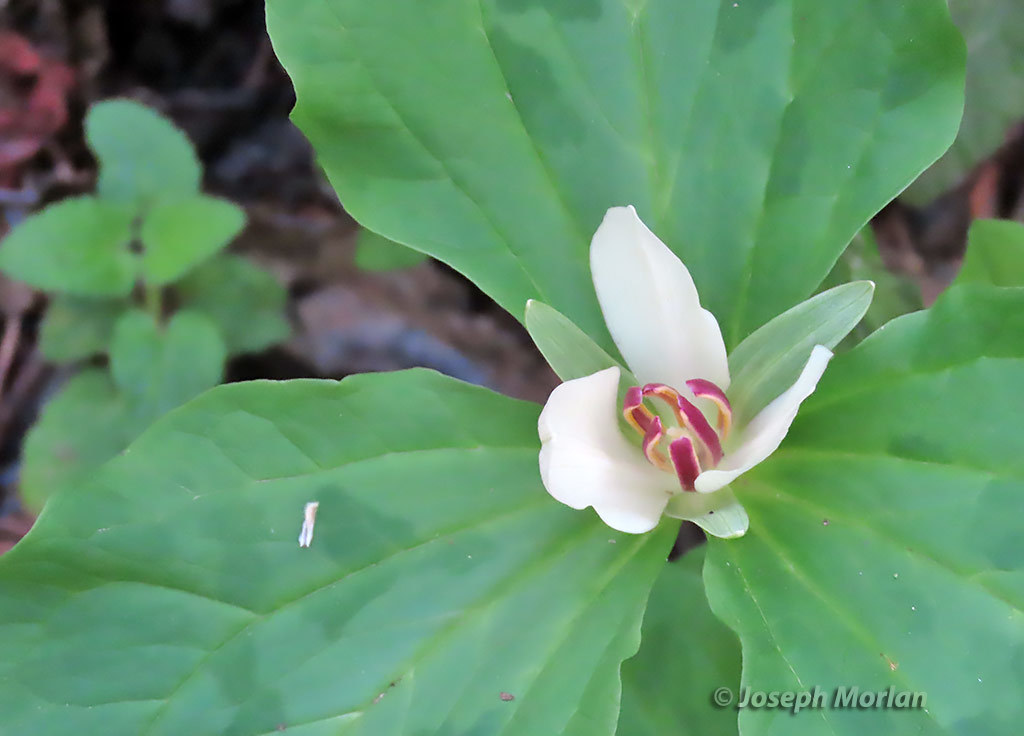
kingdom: Plantae
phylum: Tracheophyta
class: Liliopsida
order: Liliales
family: Melanthiaceae
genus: Trillium
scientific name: Trillium chloropetalum
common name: Giant trillium
